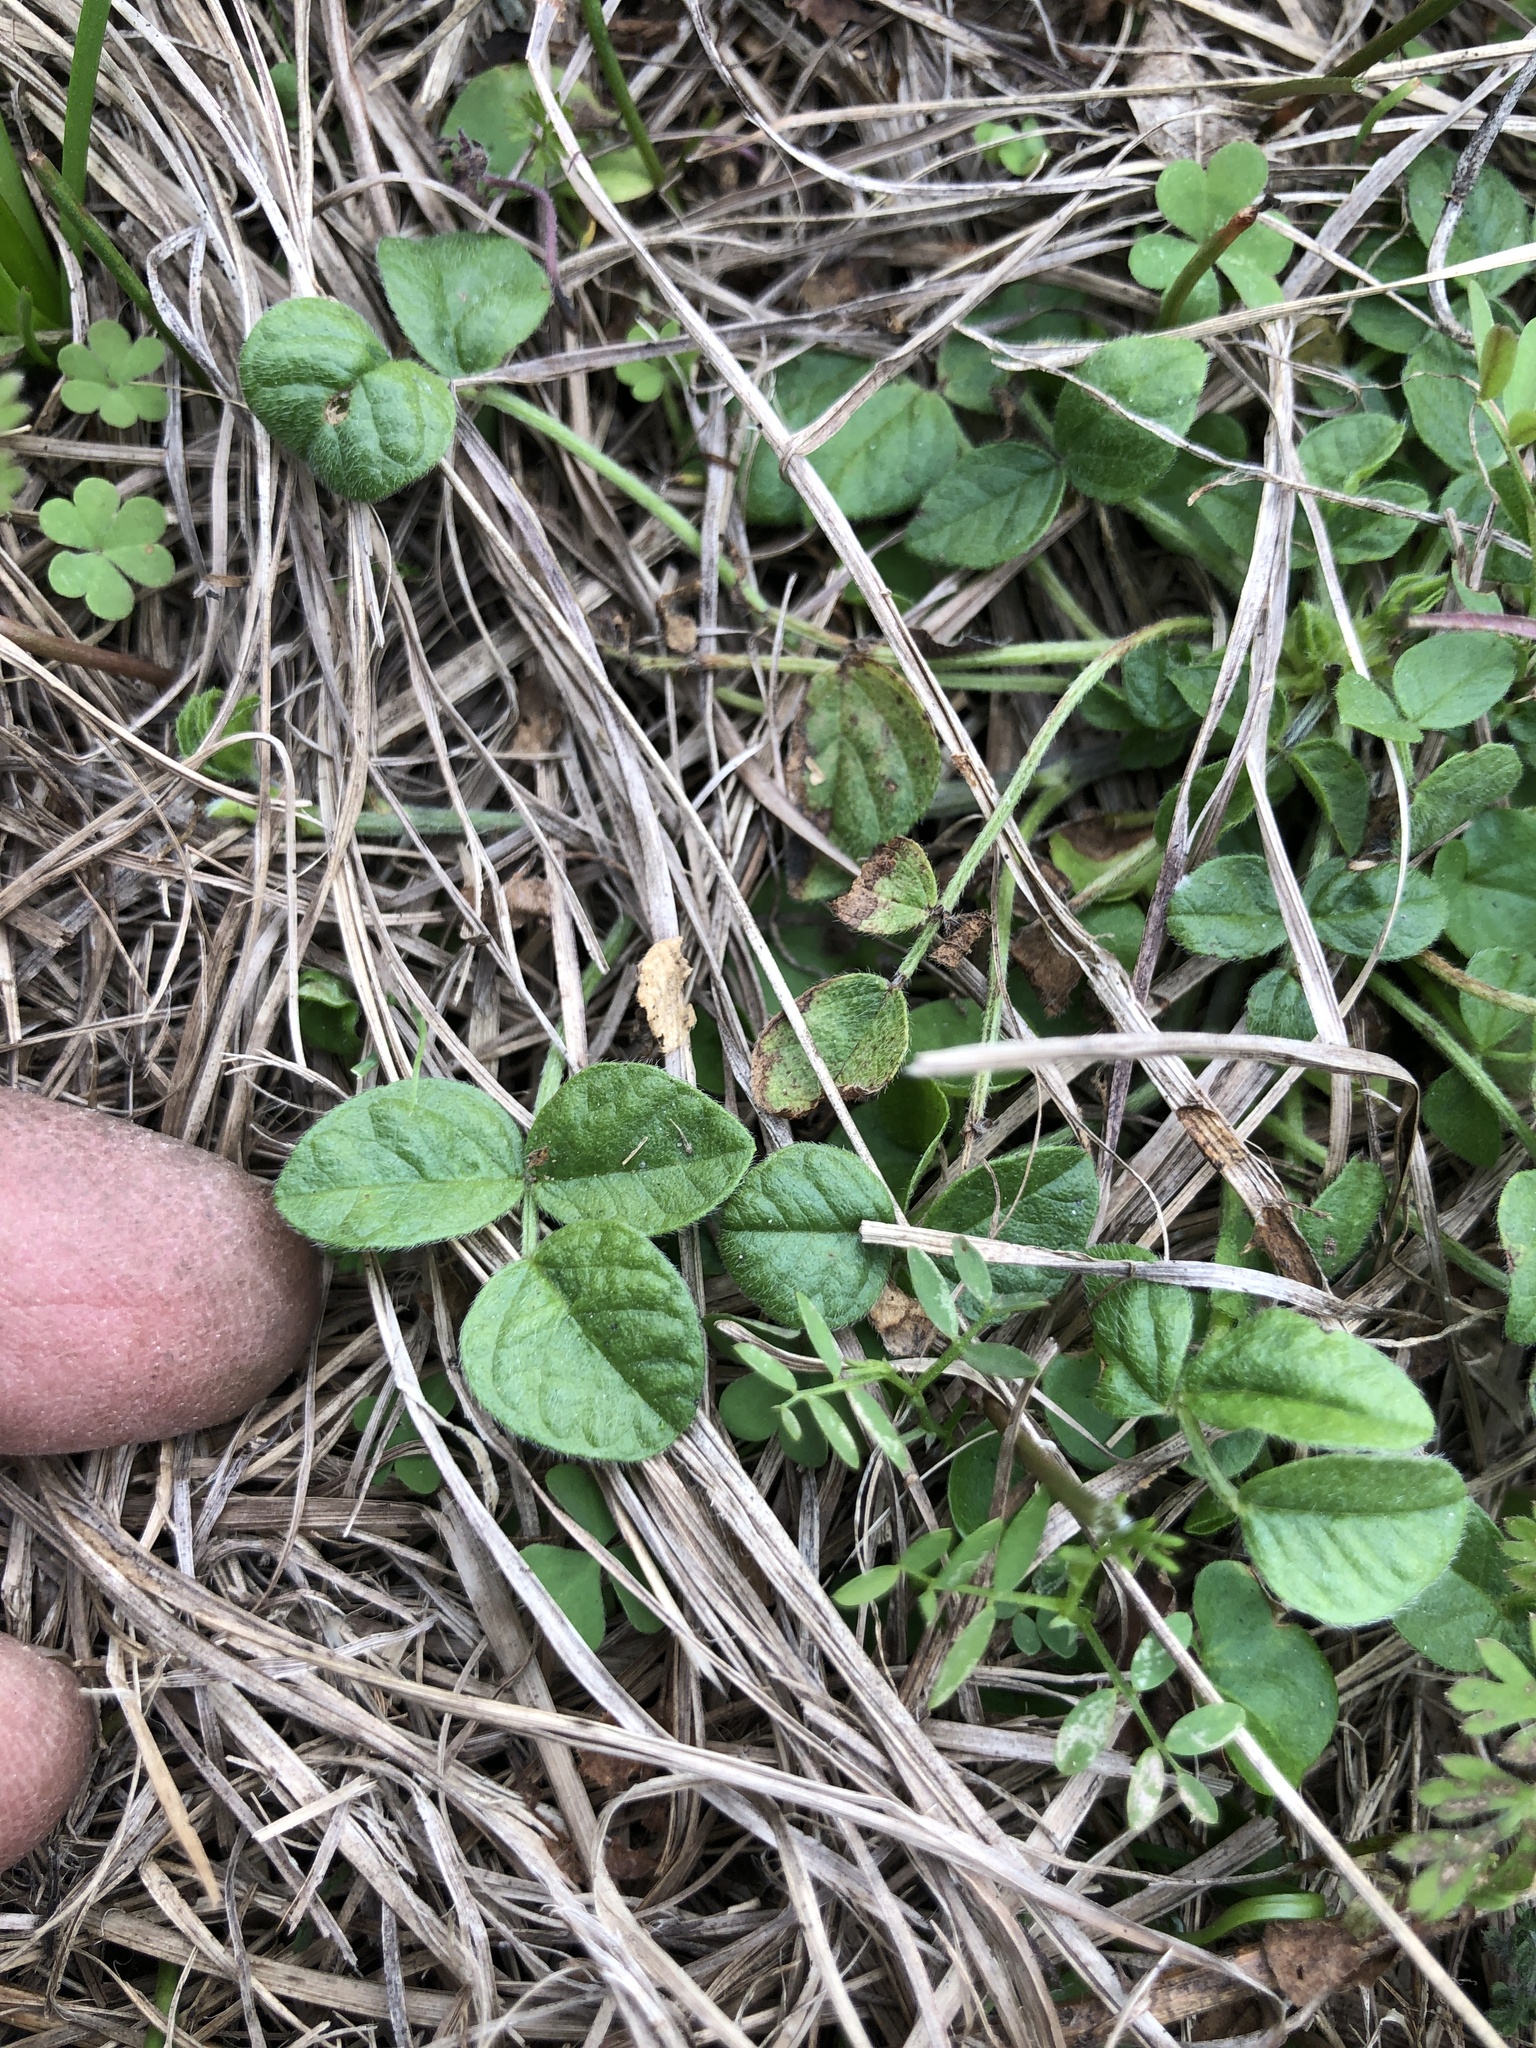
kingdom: Plantae
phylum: Tracheophyta
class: Magnoliopsida
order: Fabales
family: Fabaceae
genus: Pediomelum
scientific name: Pediomelum rhombifolium
